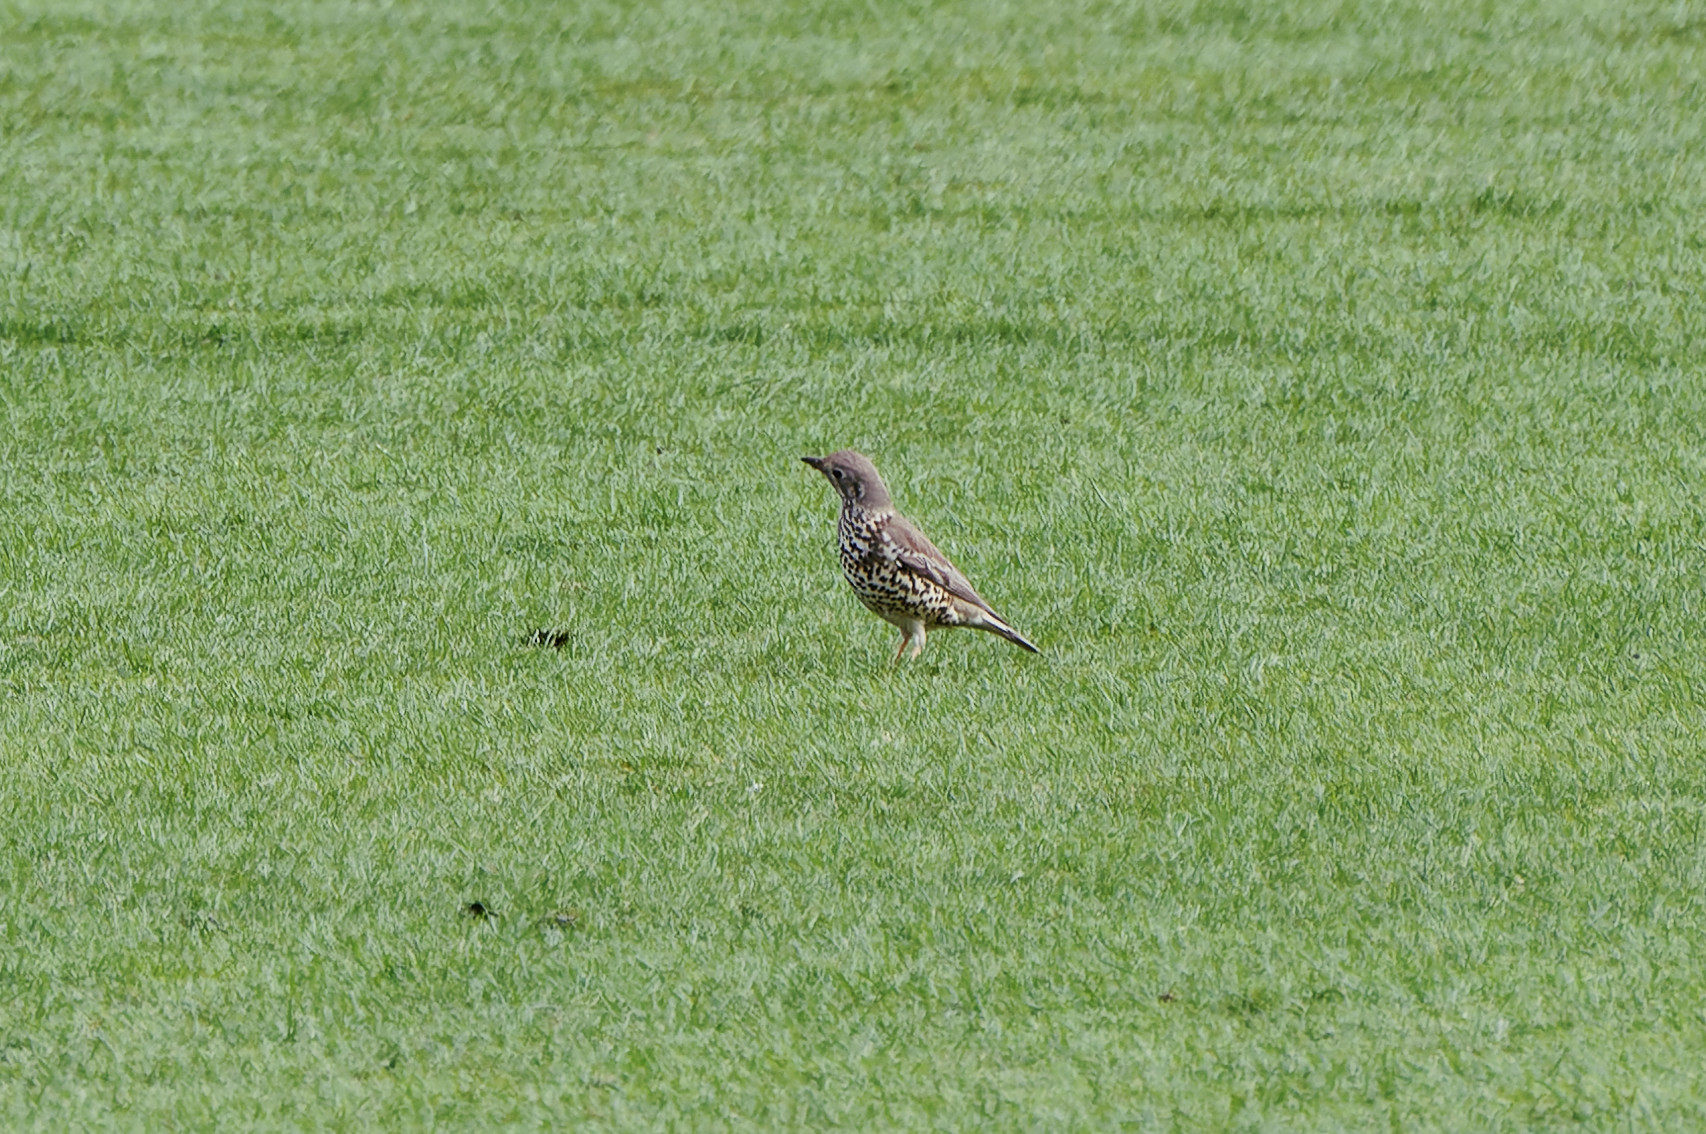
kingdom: Animalia
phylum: Chordata
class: Aves
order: Passeriformes
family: Turdidae
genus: Turdus
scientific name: Turdus viscivorus
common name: Mistle thrush
